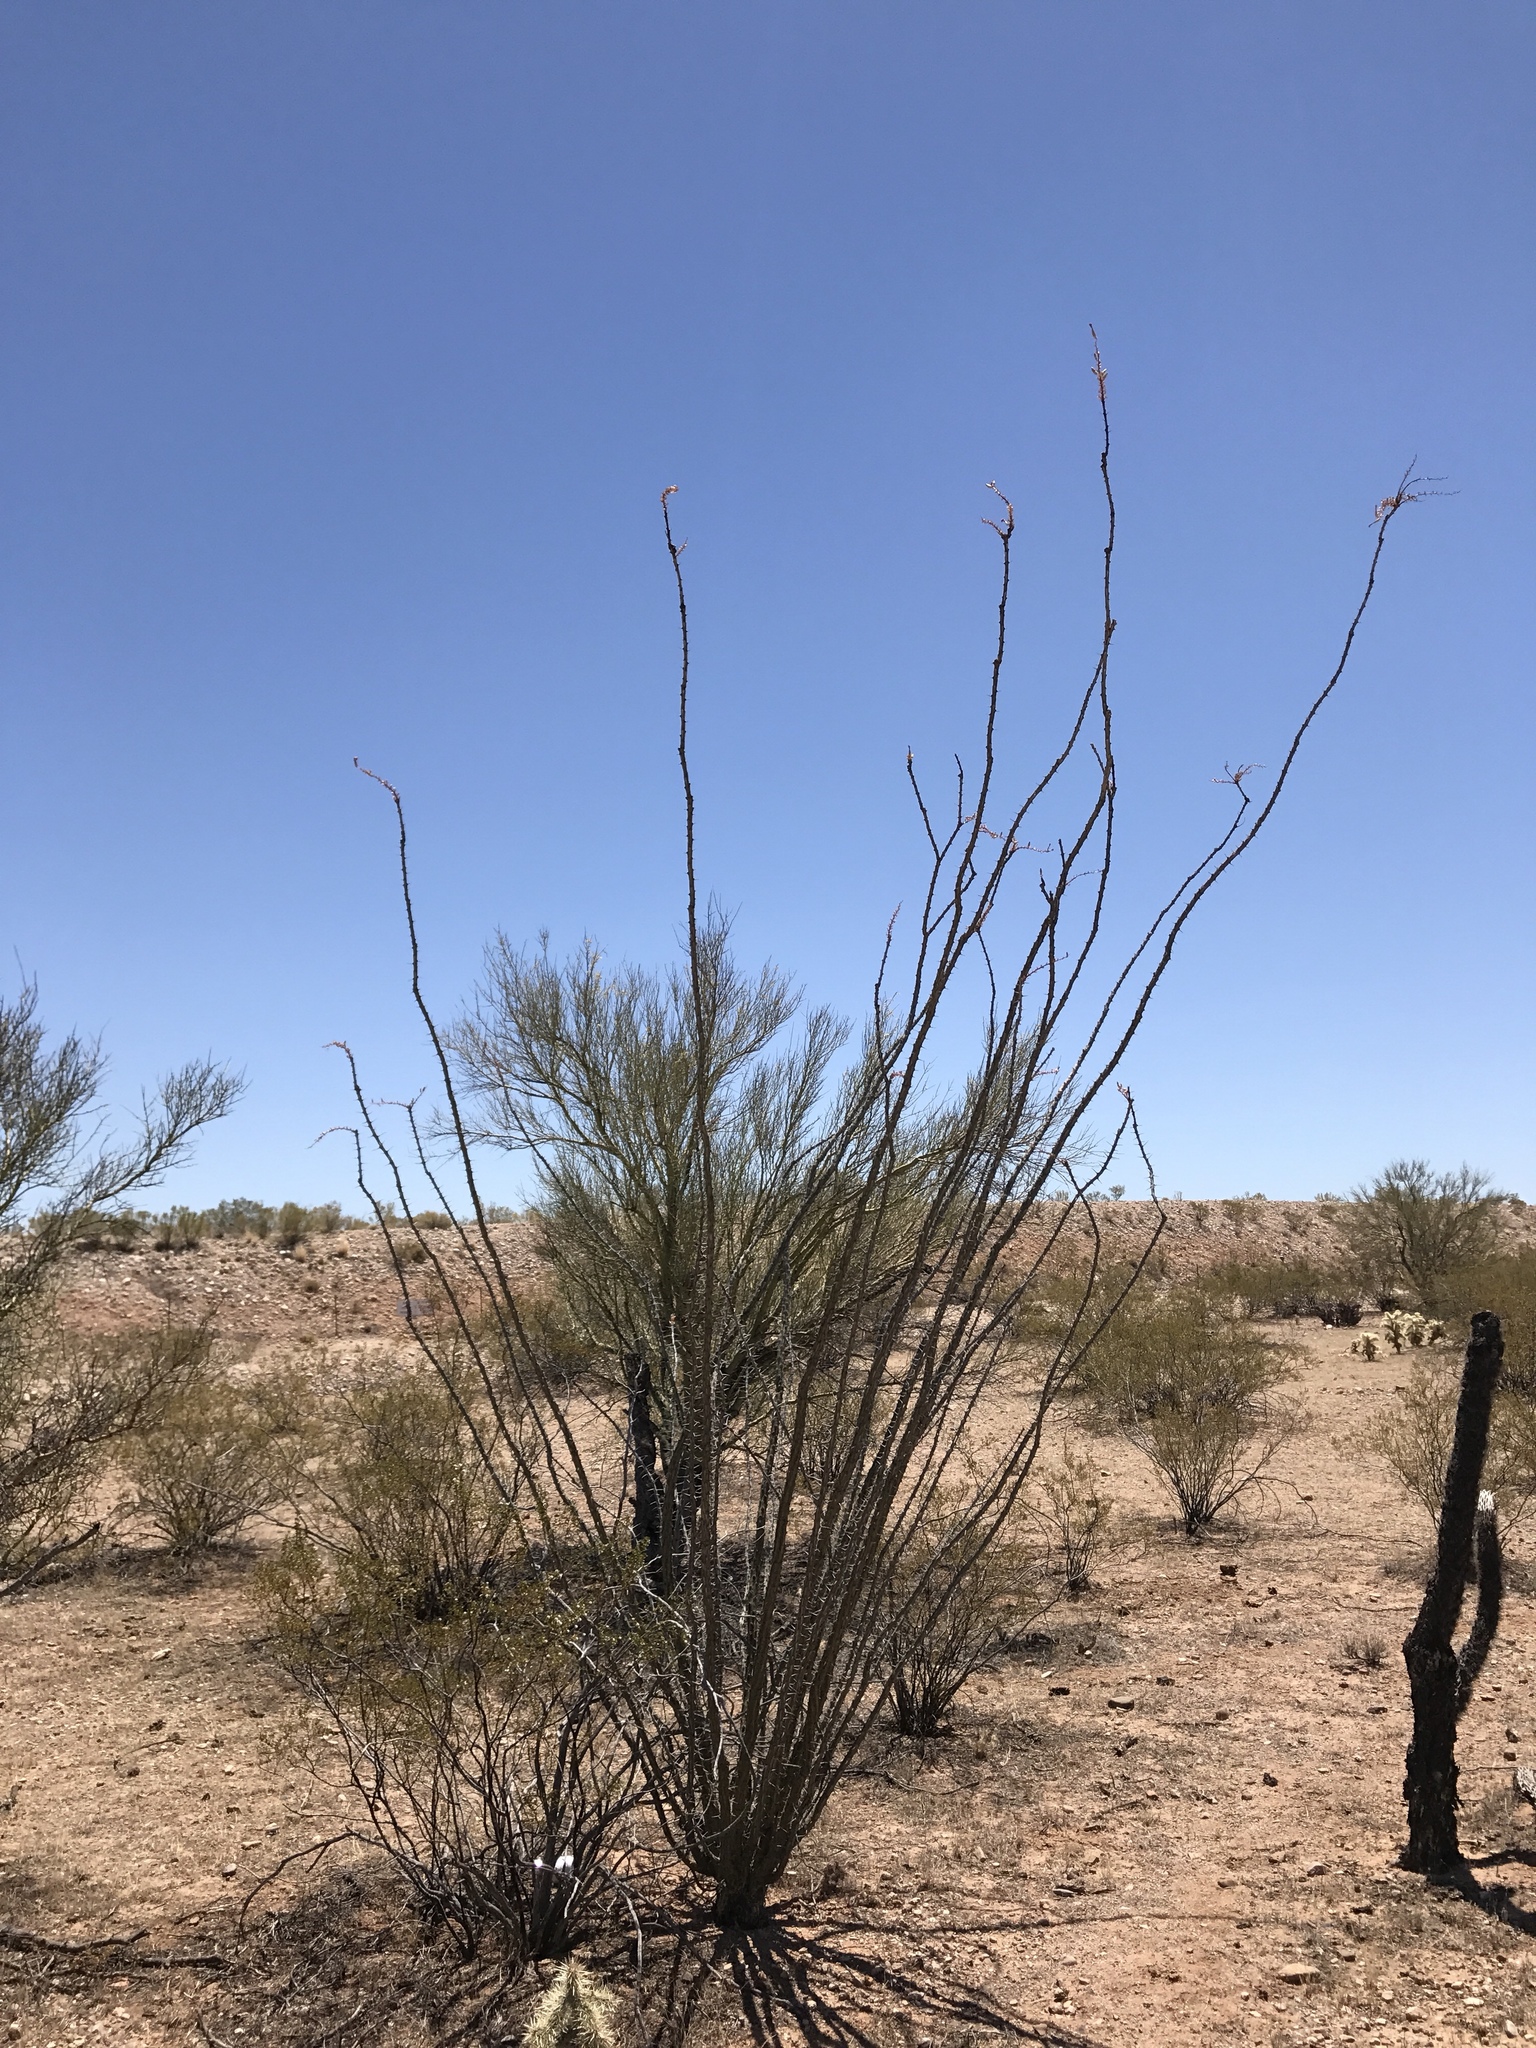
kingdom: Plantae
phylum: Tracheophyta
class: Magnoliopsida
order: Ericales
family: Fouquieriaceae
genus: Fouquieria
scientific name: Fouquieria splendens
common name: Vine-cactus
